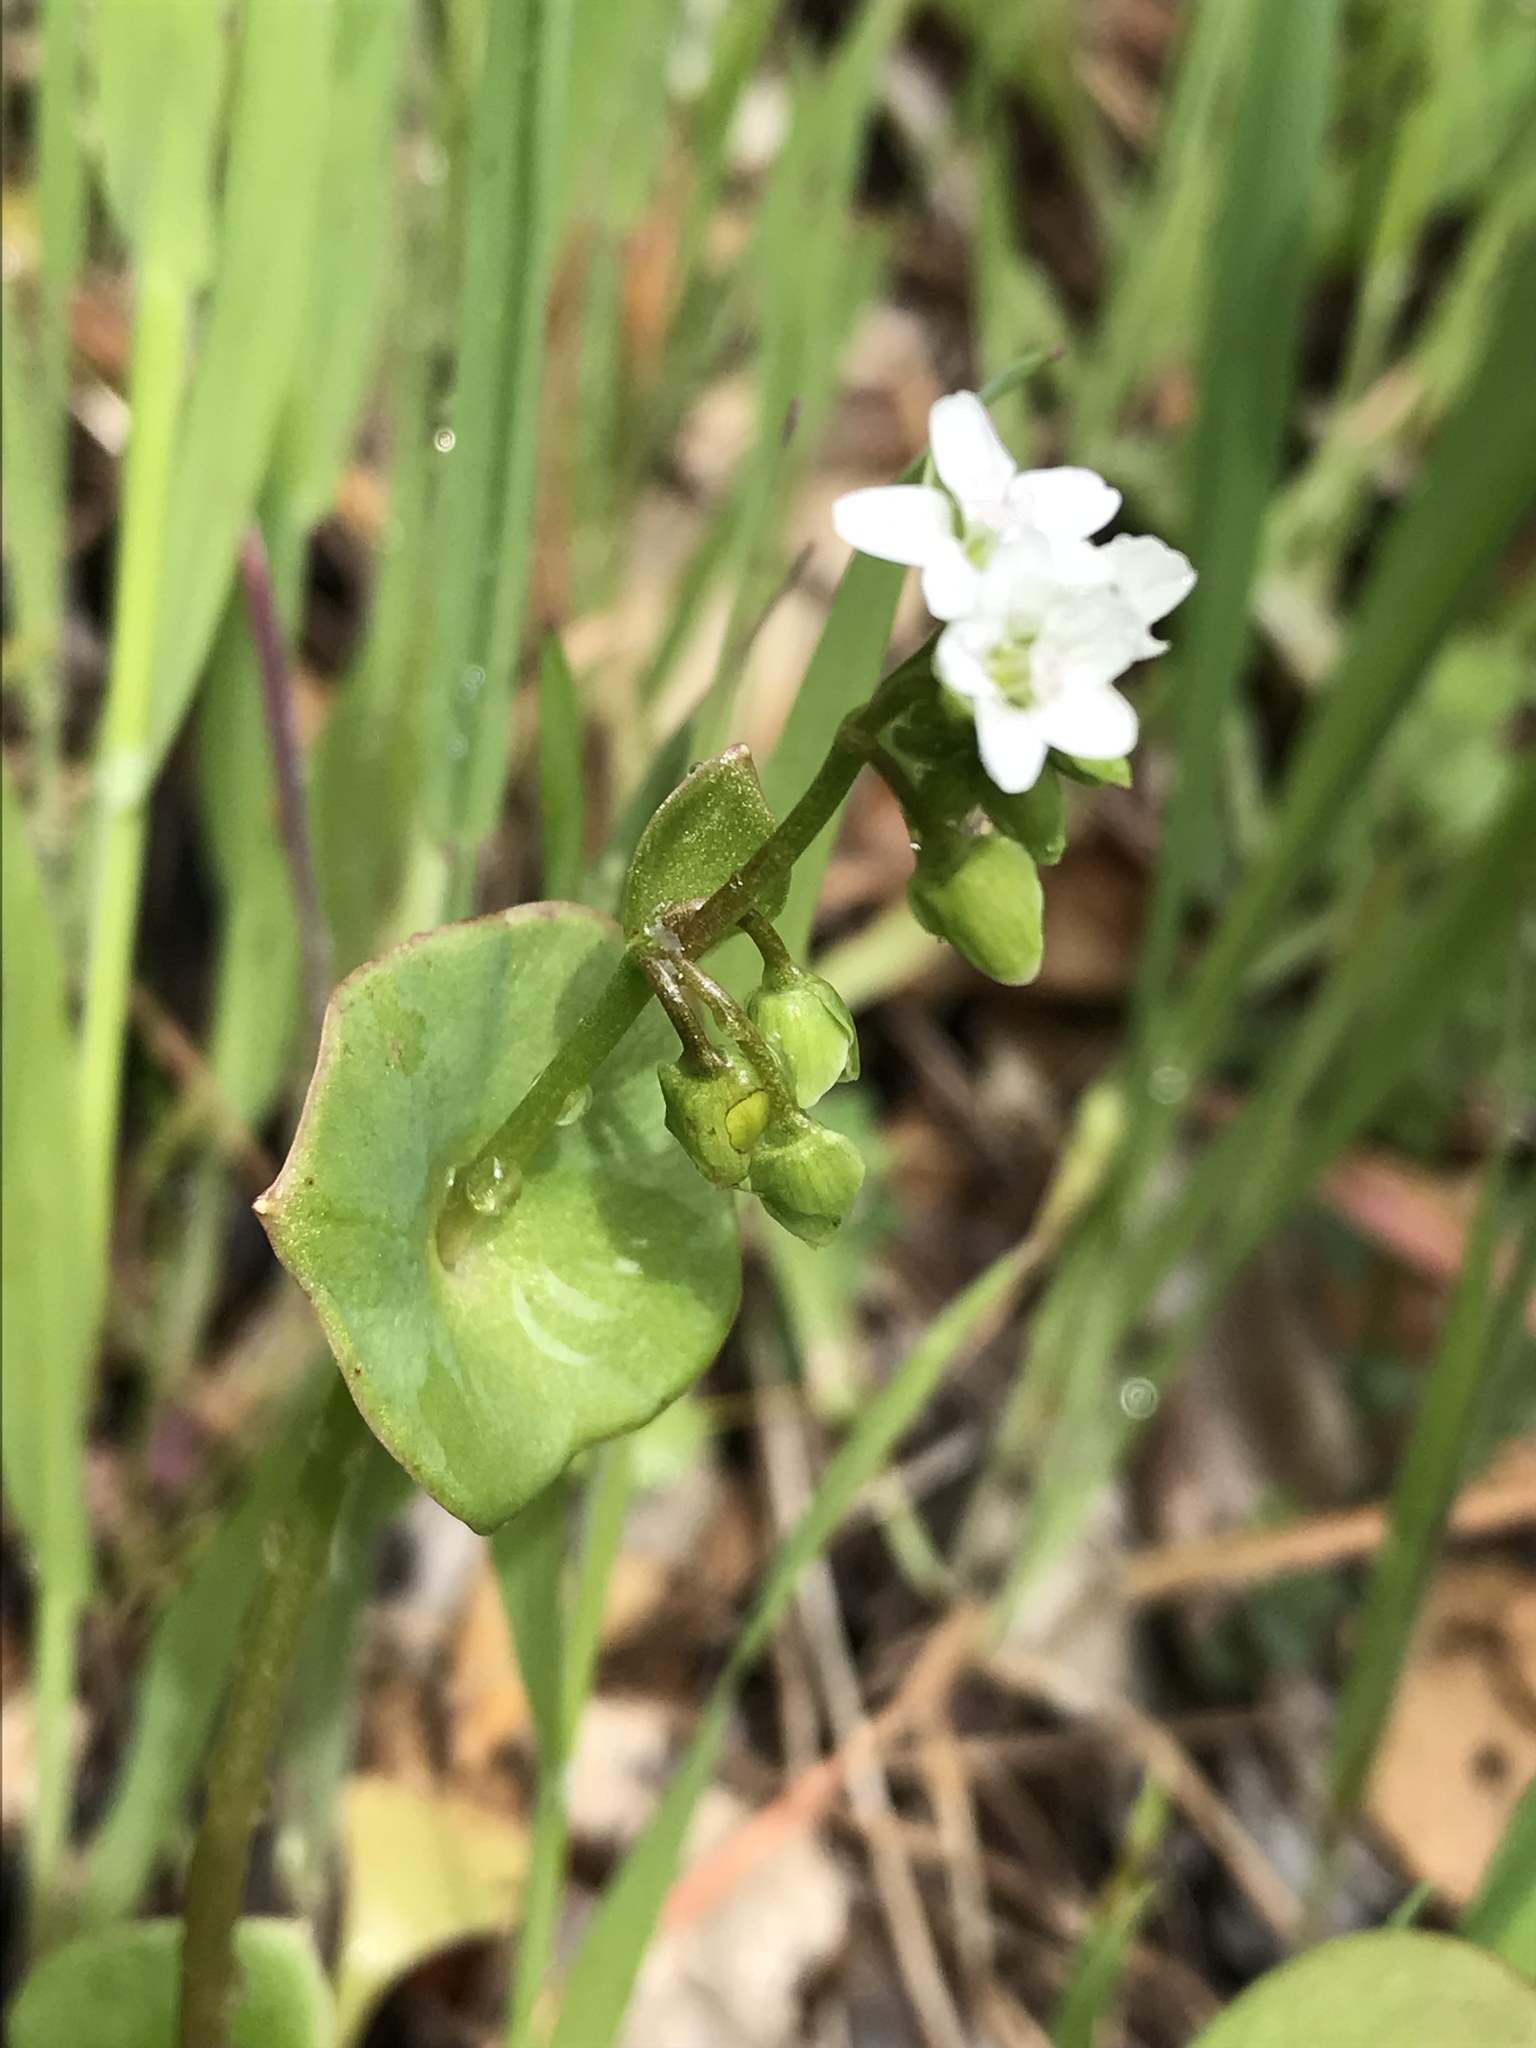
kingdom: Plantae
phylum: Tracheophyta
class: Magnoliopsida
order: Caryophyllales
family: Montiaceae
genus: Claytonia
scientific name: Claytonia perfoliata
